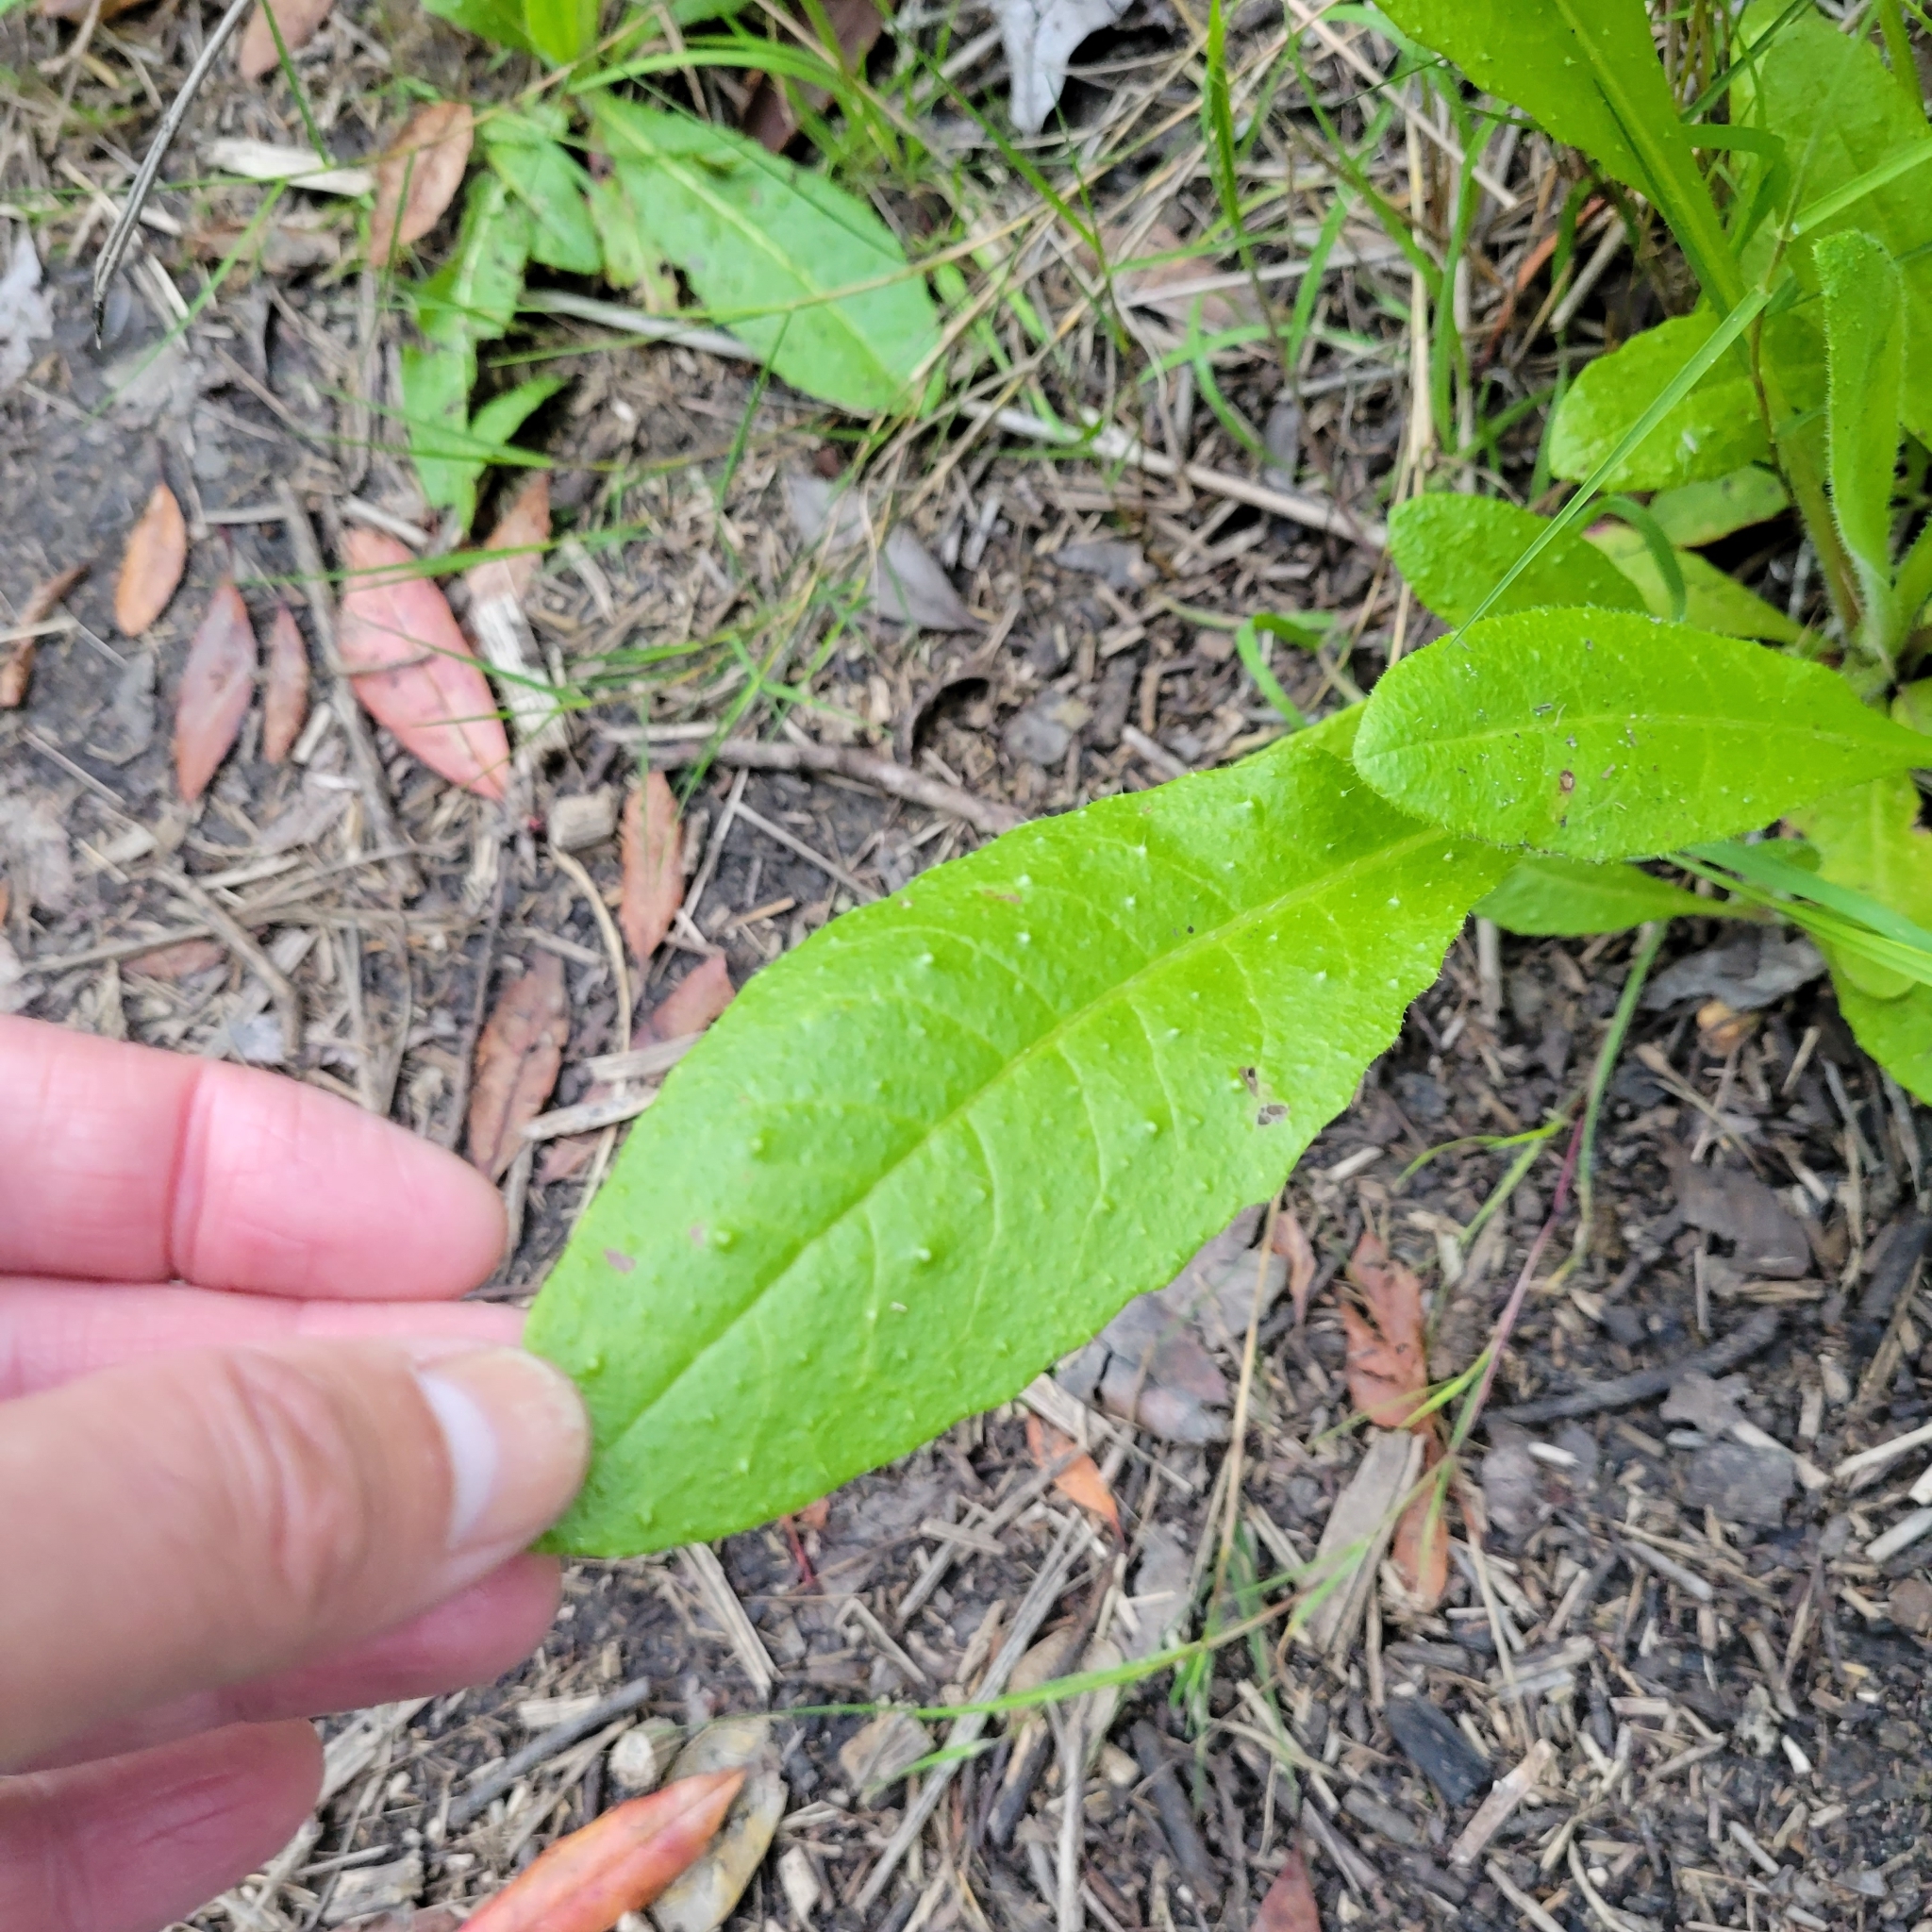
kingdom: Plantae
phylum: Tracheophyta
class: Magnoliopsida
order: Asterales
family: Asteraceae
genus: Helminthotheca
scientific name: Helminthotheca echioides
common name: Ox-tongue
